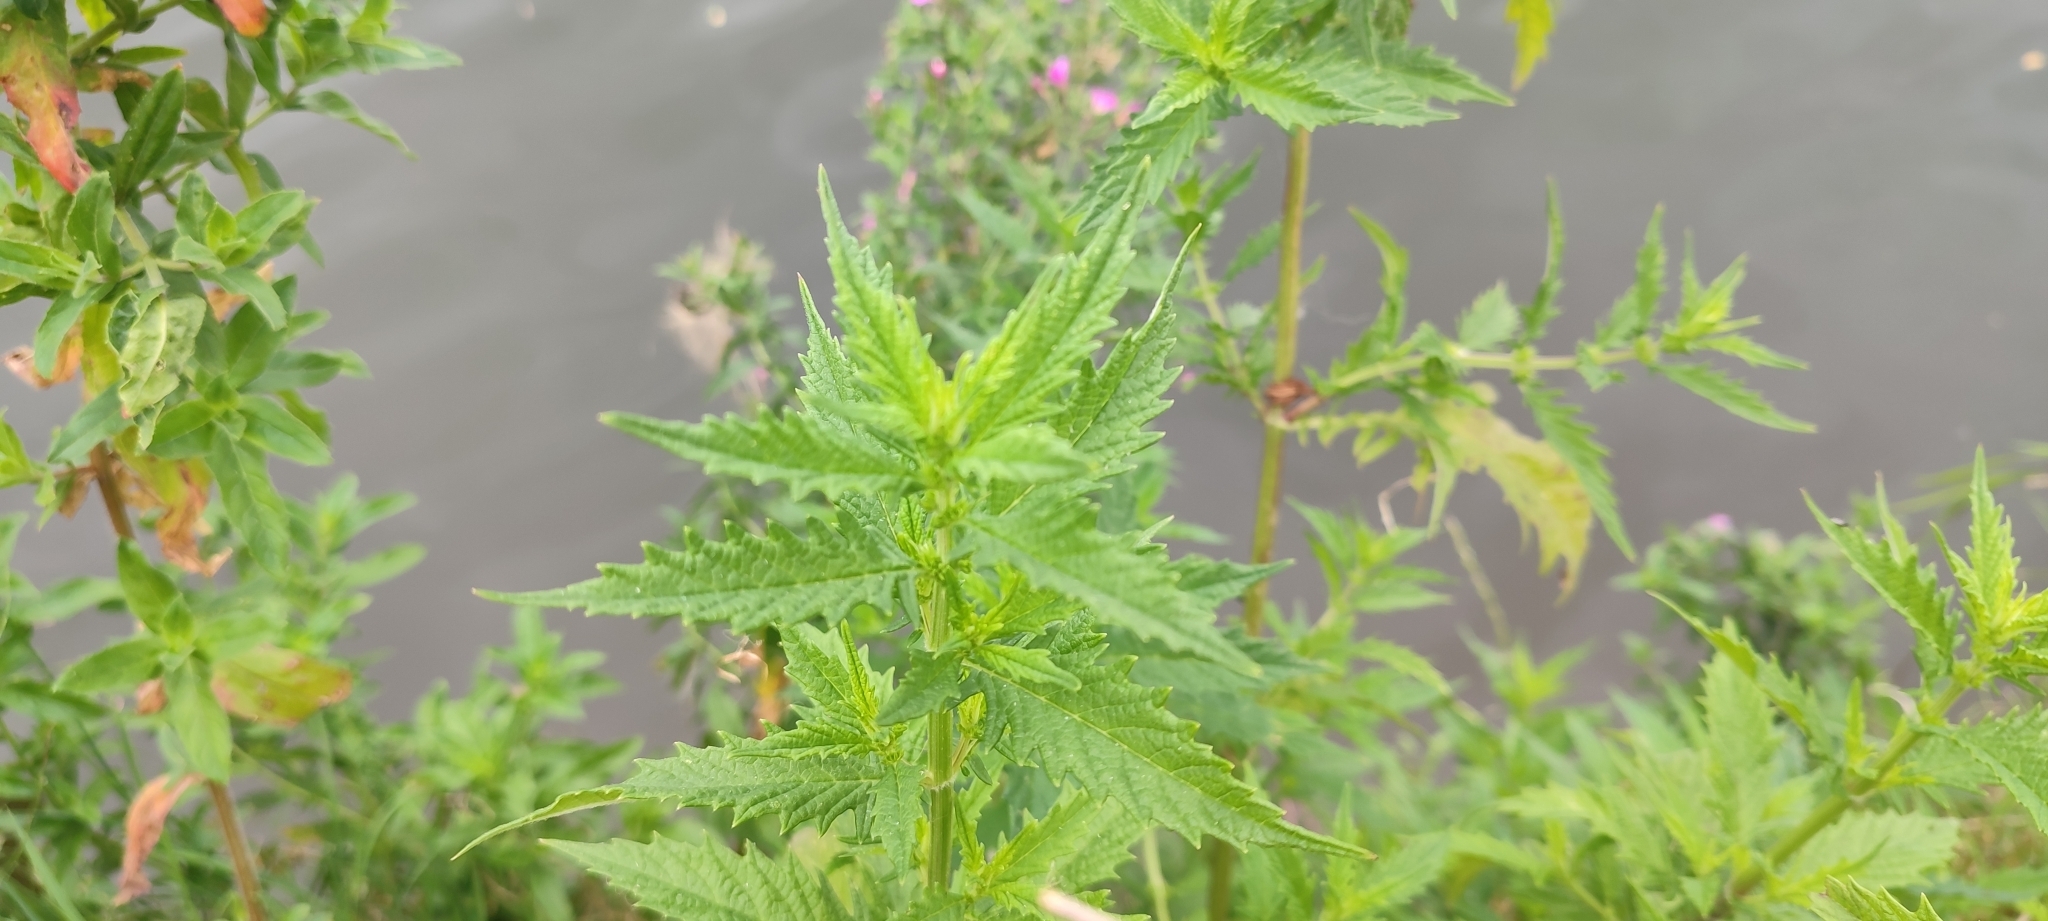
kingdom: Plantae
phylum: Tracheophyta
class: Magnoliopsida
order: Lamiales
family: Lamiaceae
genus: Lycopus
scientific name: Lycopus europaeus
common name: European bugleweed
